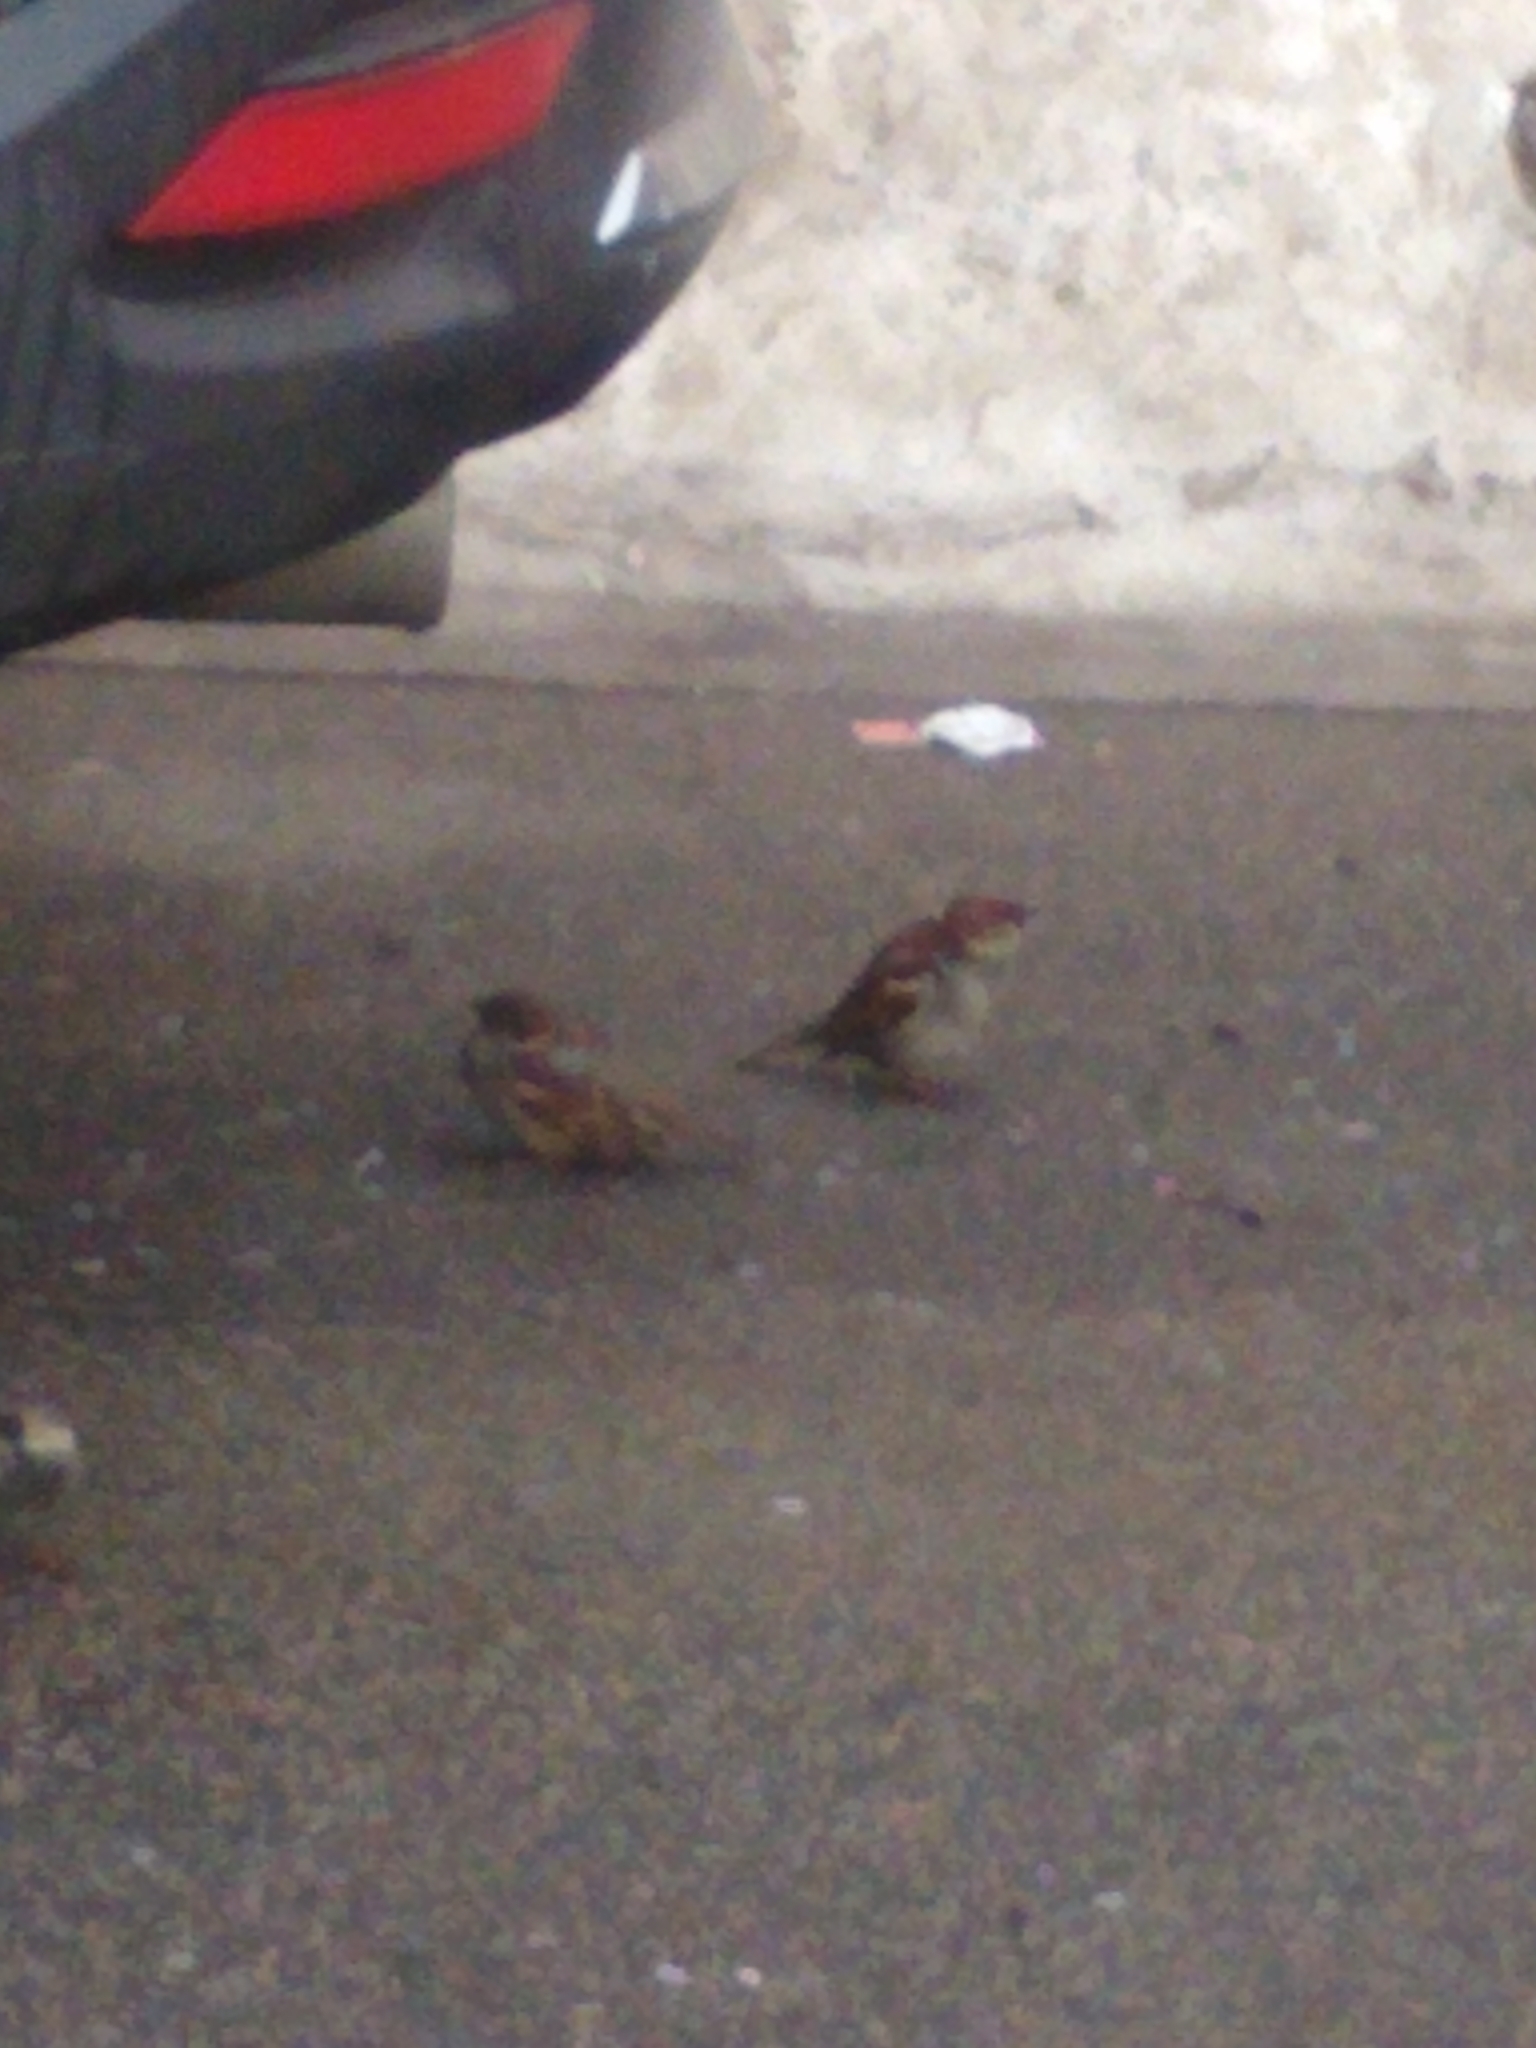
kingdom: Animalia
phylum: Chordata
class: Aves
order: Passeriformes
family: Passeridae
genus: Passer
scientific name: Passer domesticus
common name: House sparrow
